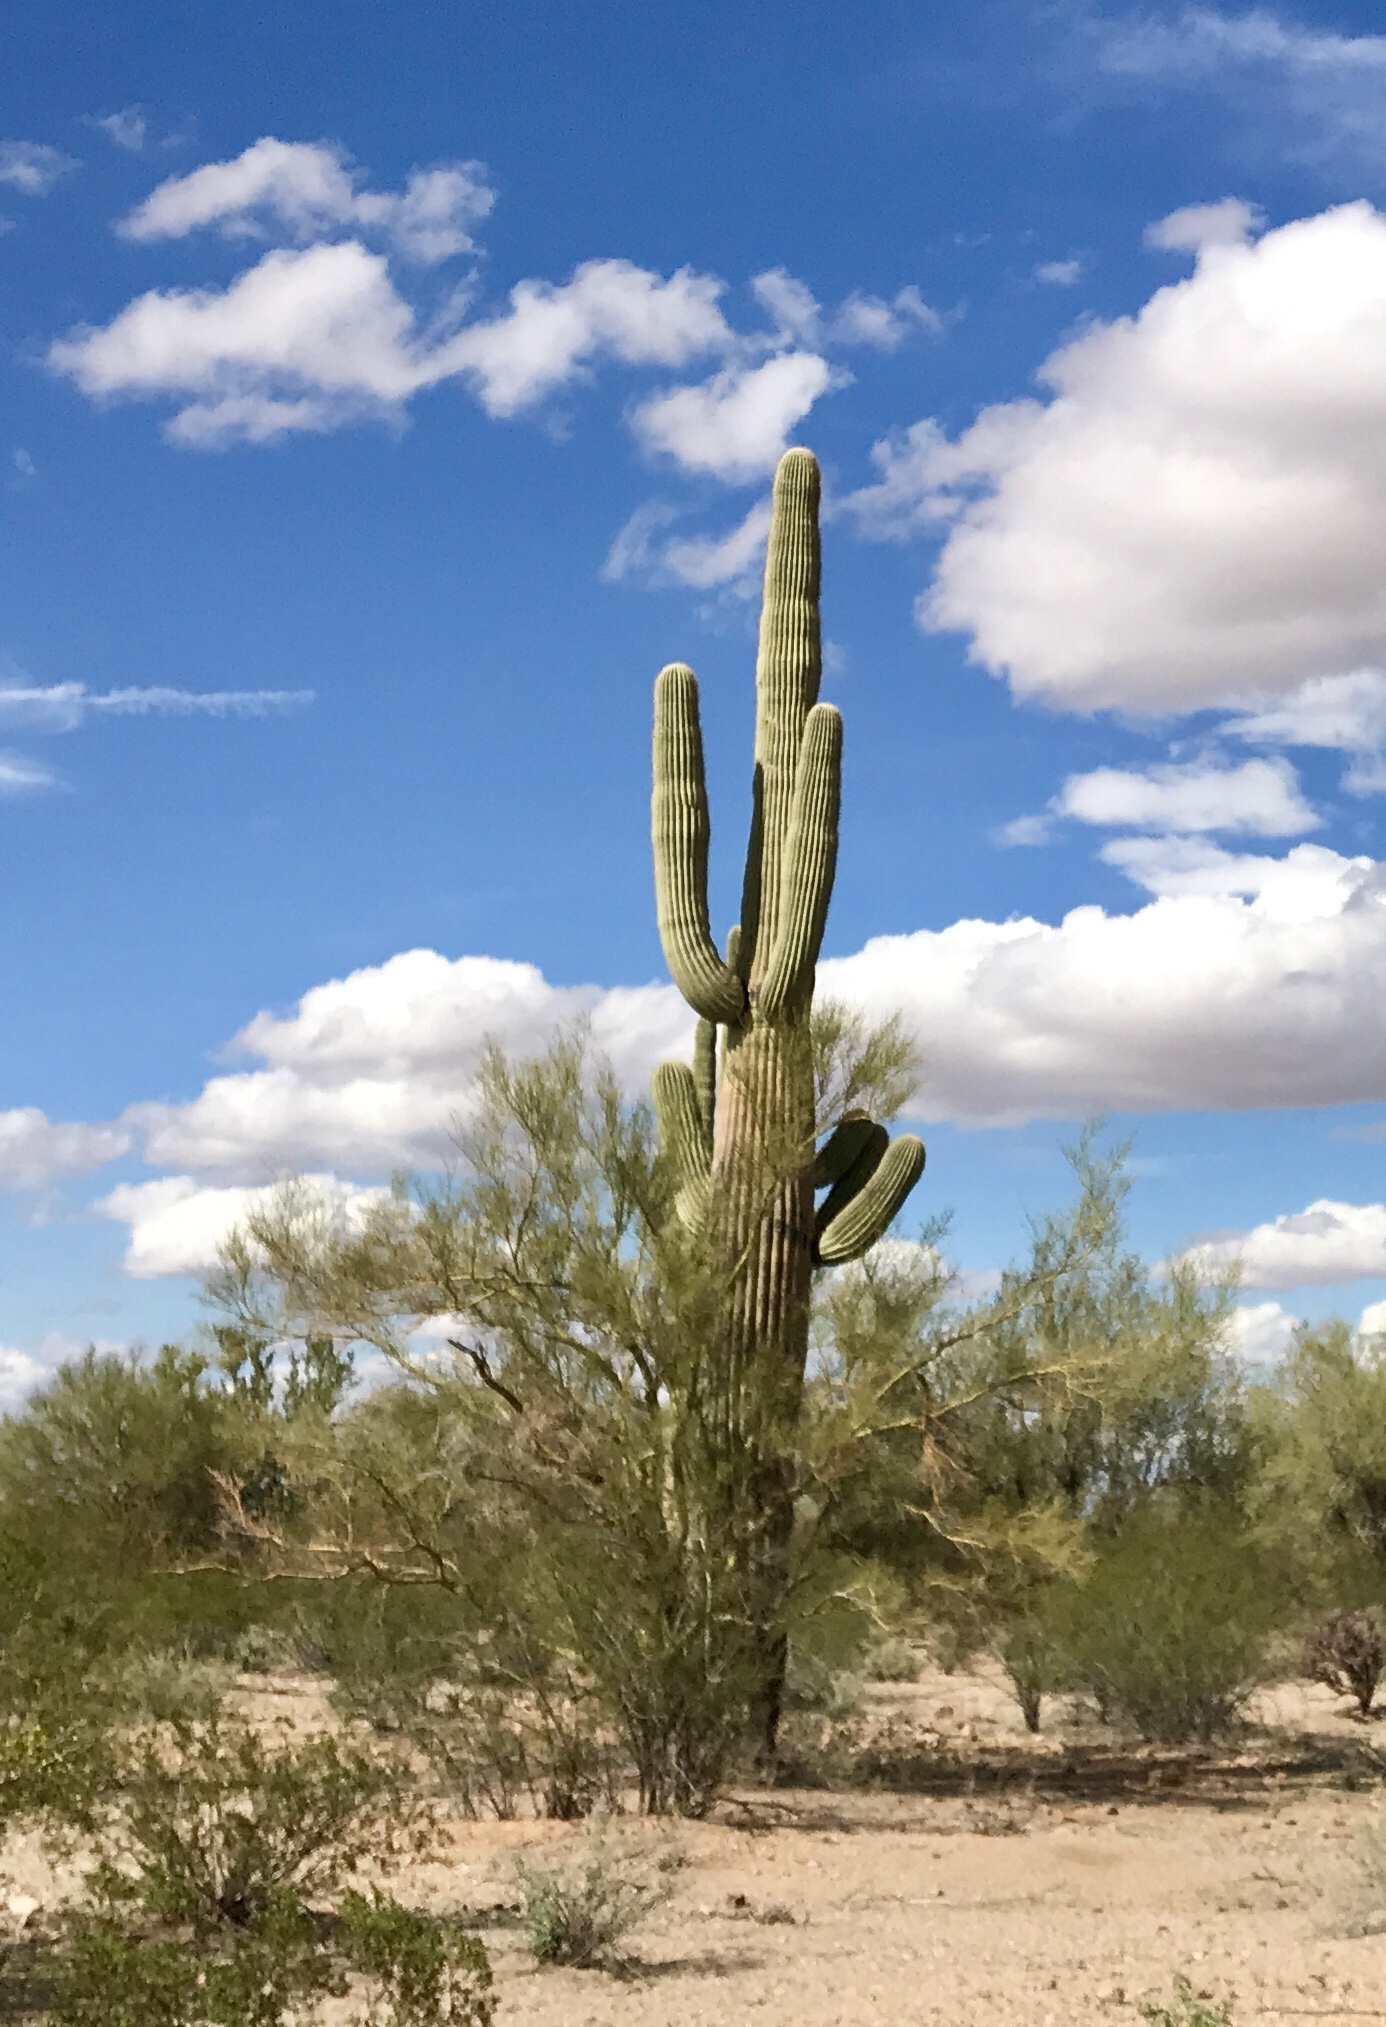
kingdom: Plantae
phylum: Tracheophyta
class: Magnoliopsida
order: Caryophyllales
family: Cactaceae
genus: Carnegiea
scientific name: Carnegiea gigantea
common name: Saguaro
